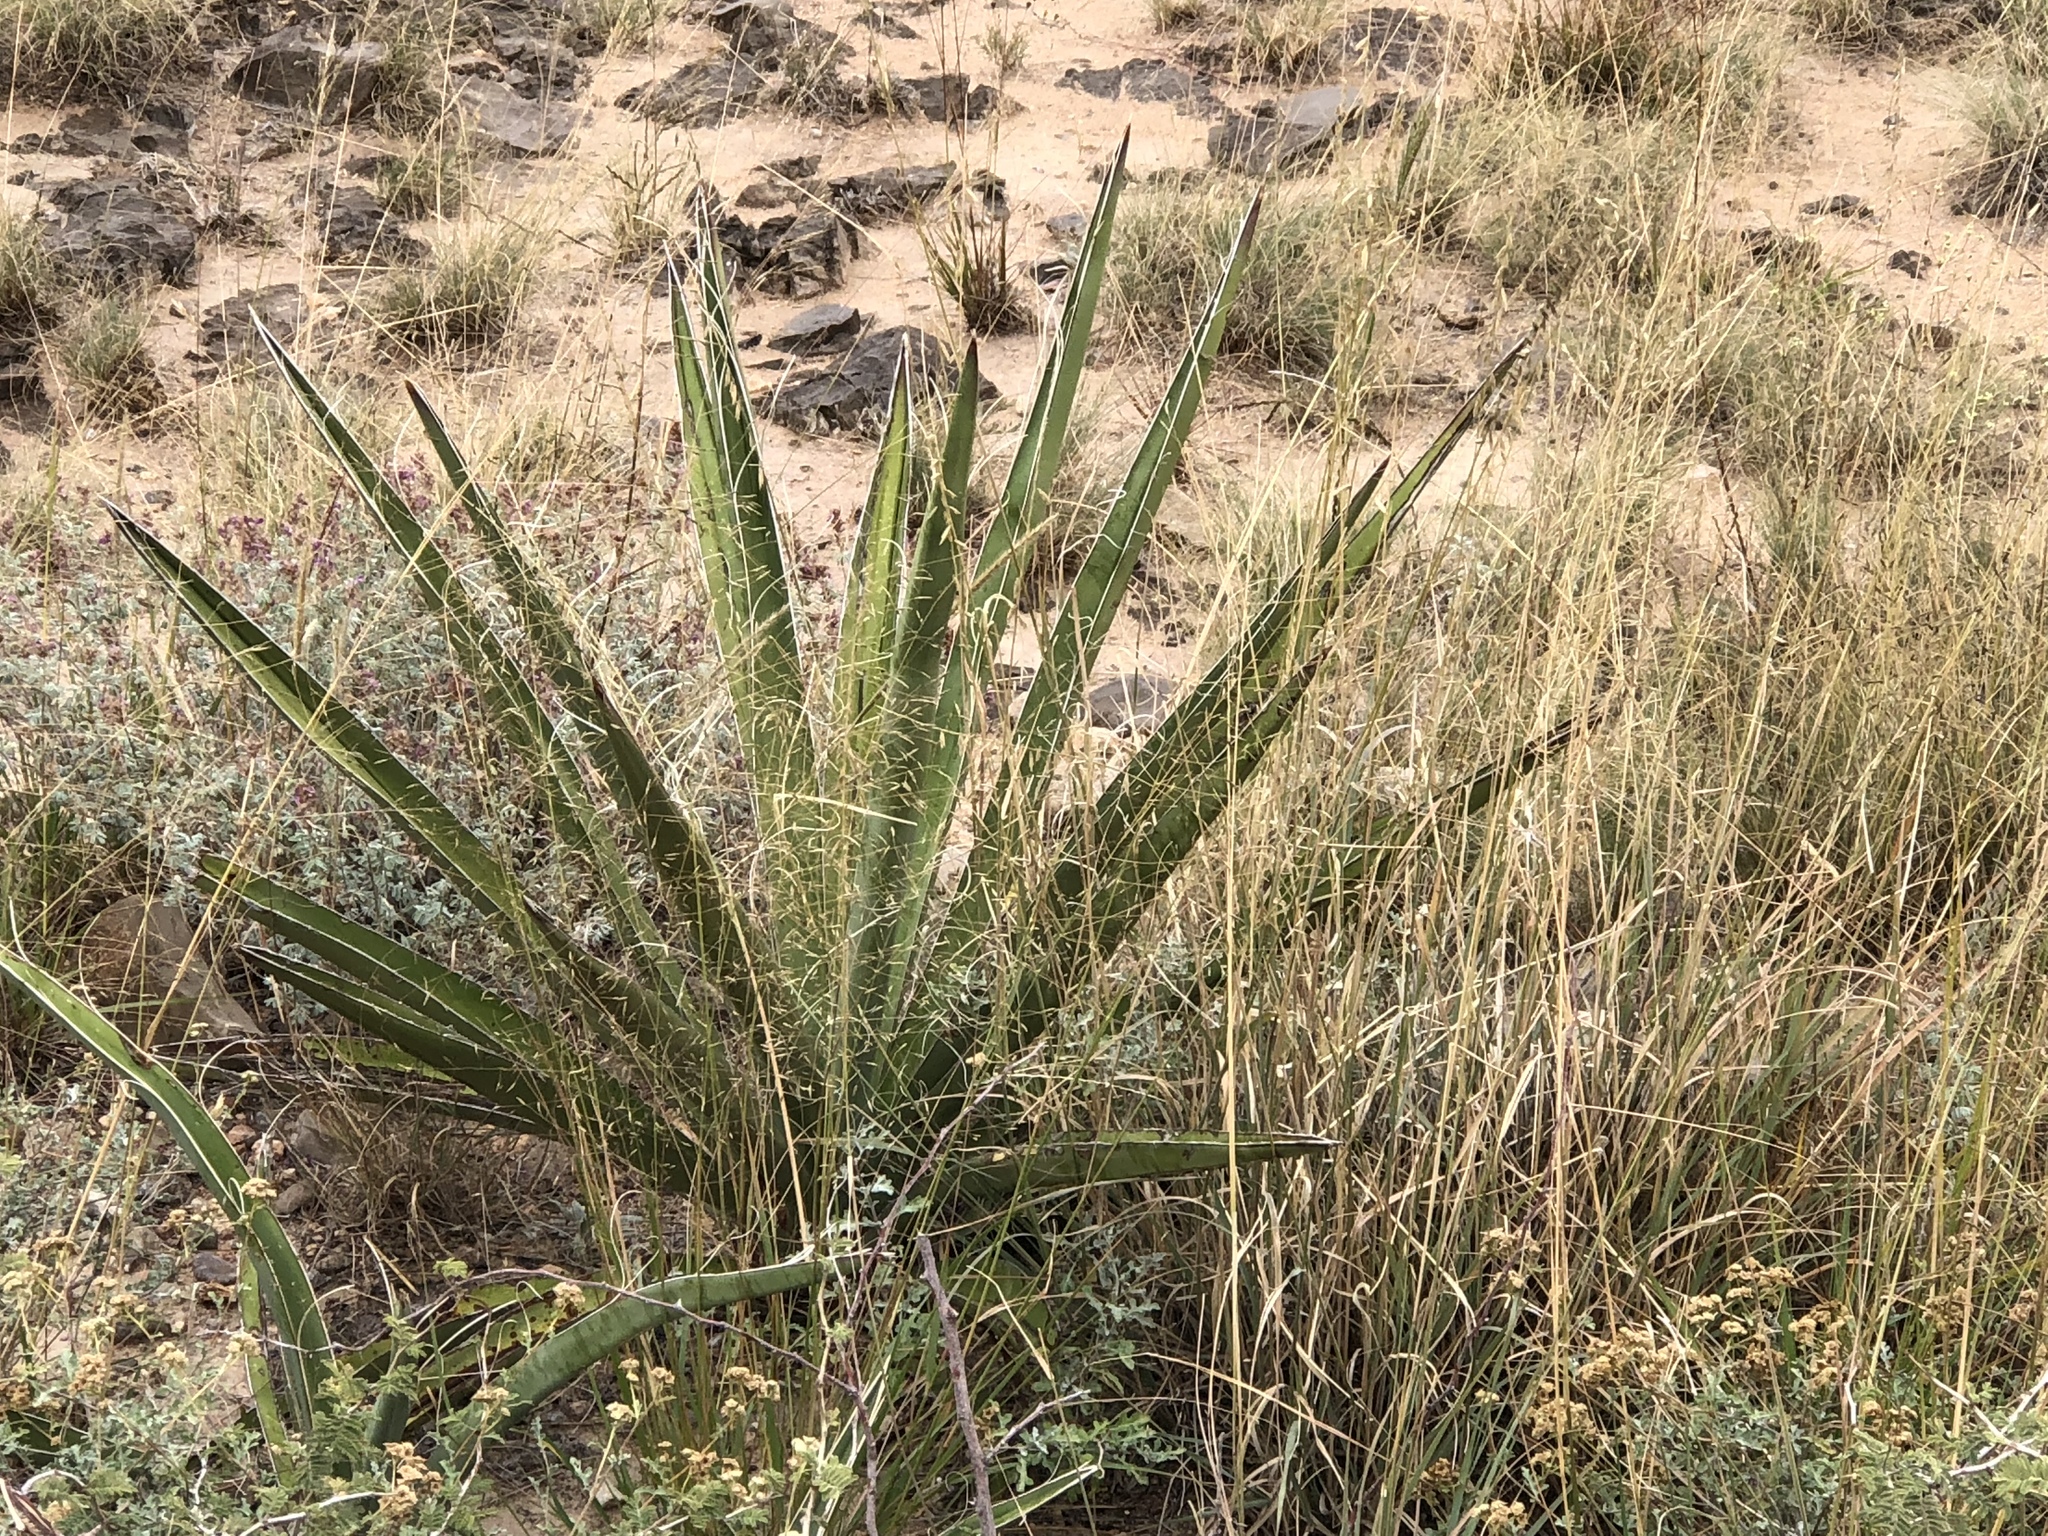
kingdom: Plantae
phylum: Tracheophyta
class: Liliopsida
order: Asparagales
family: Asparagaceae
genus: Yucca
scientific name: Yucca baccata
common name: Banana yucca
